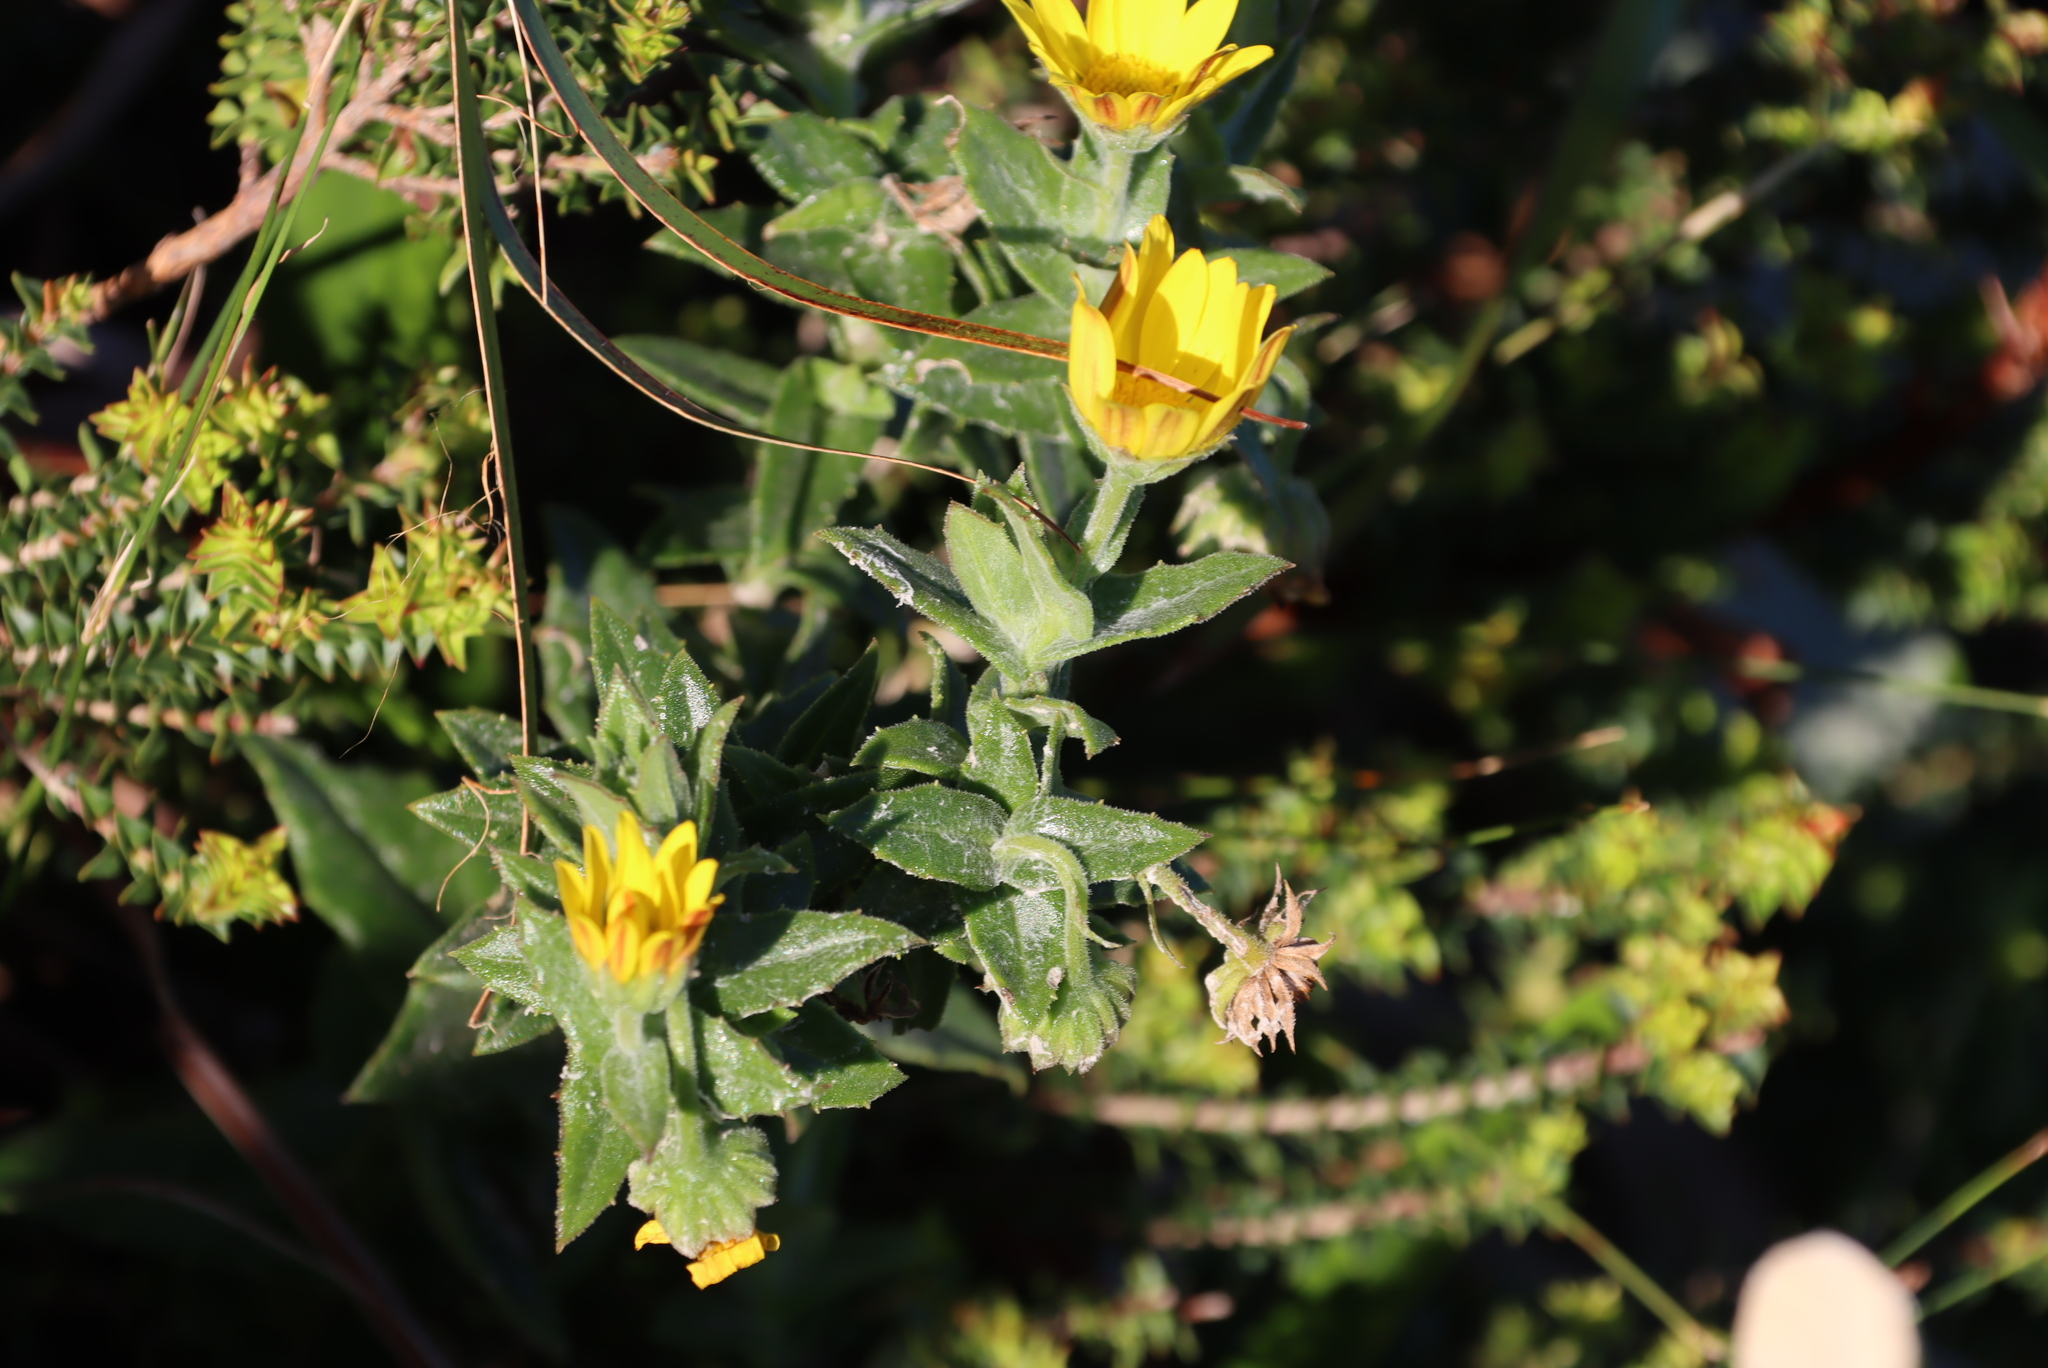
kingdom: Plantae
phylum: Tracheophyta
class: Magnoliopsida
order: Asterales
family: Asteraceae
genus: Osteospermum
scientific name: Osteospermum ilicifolium
